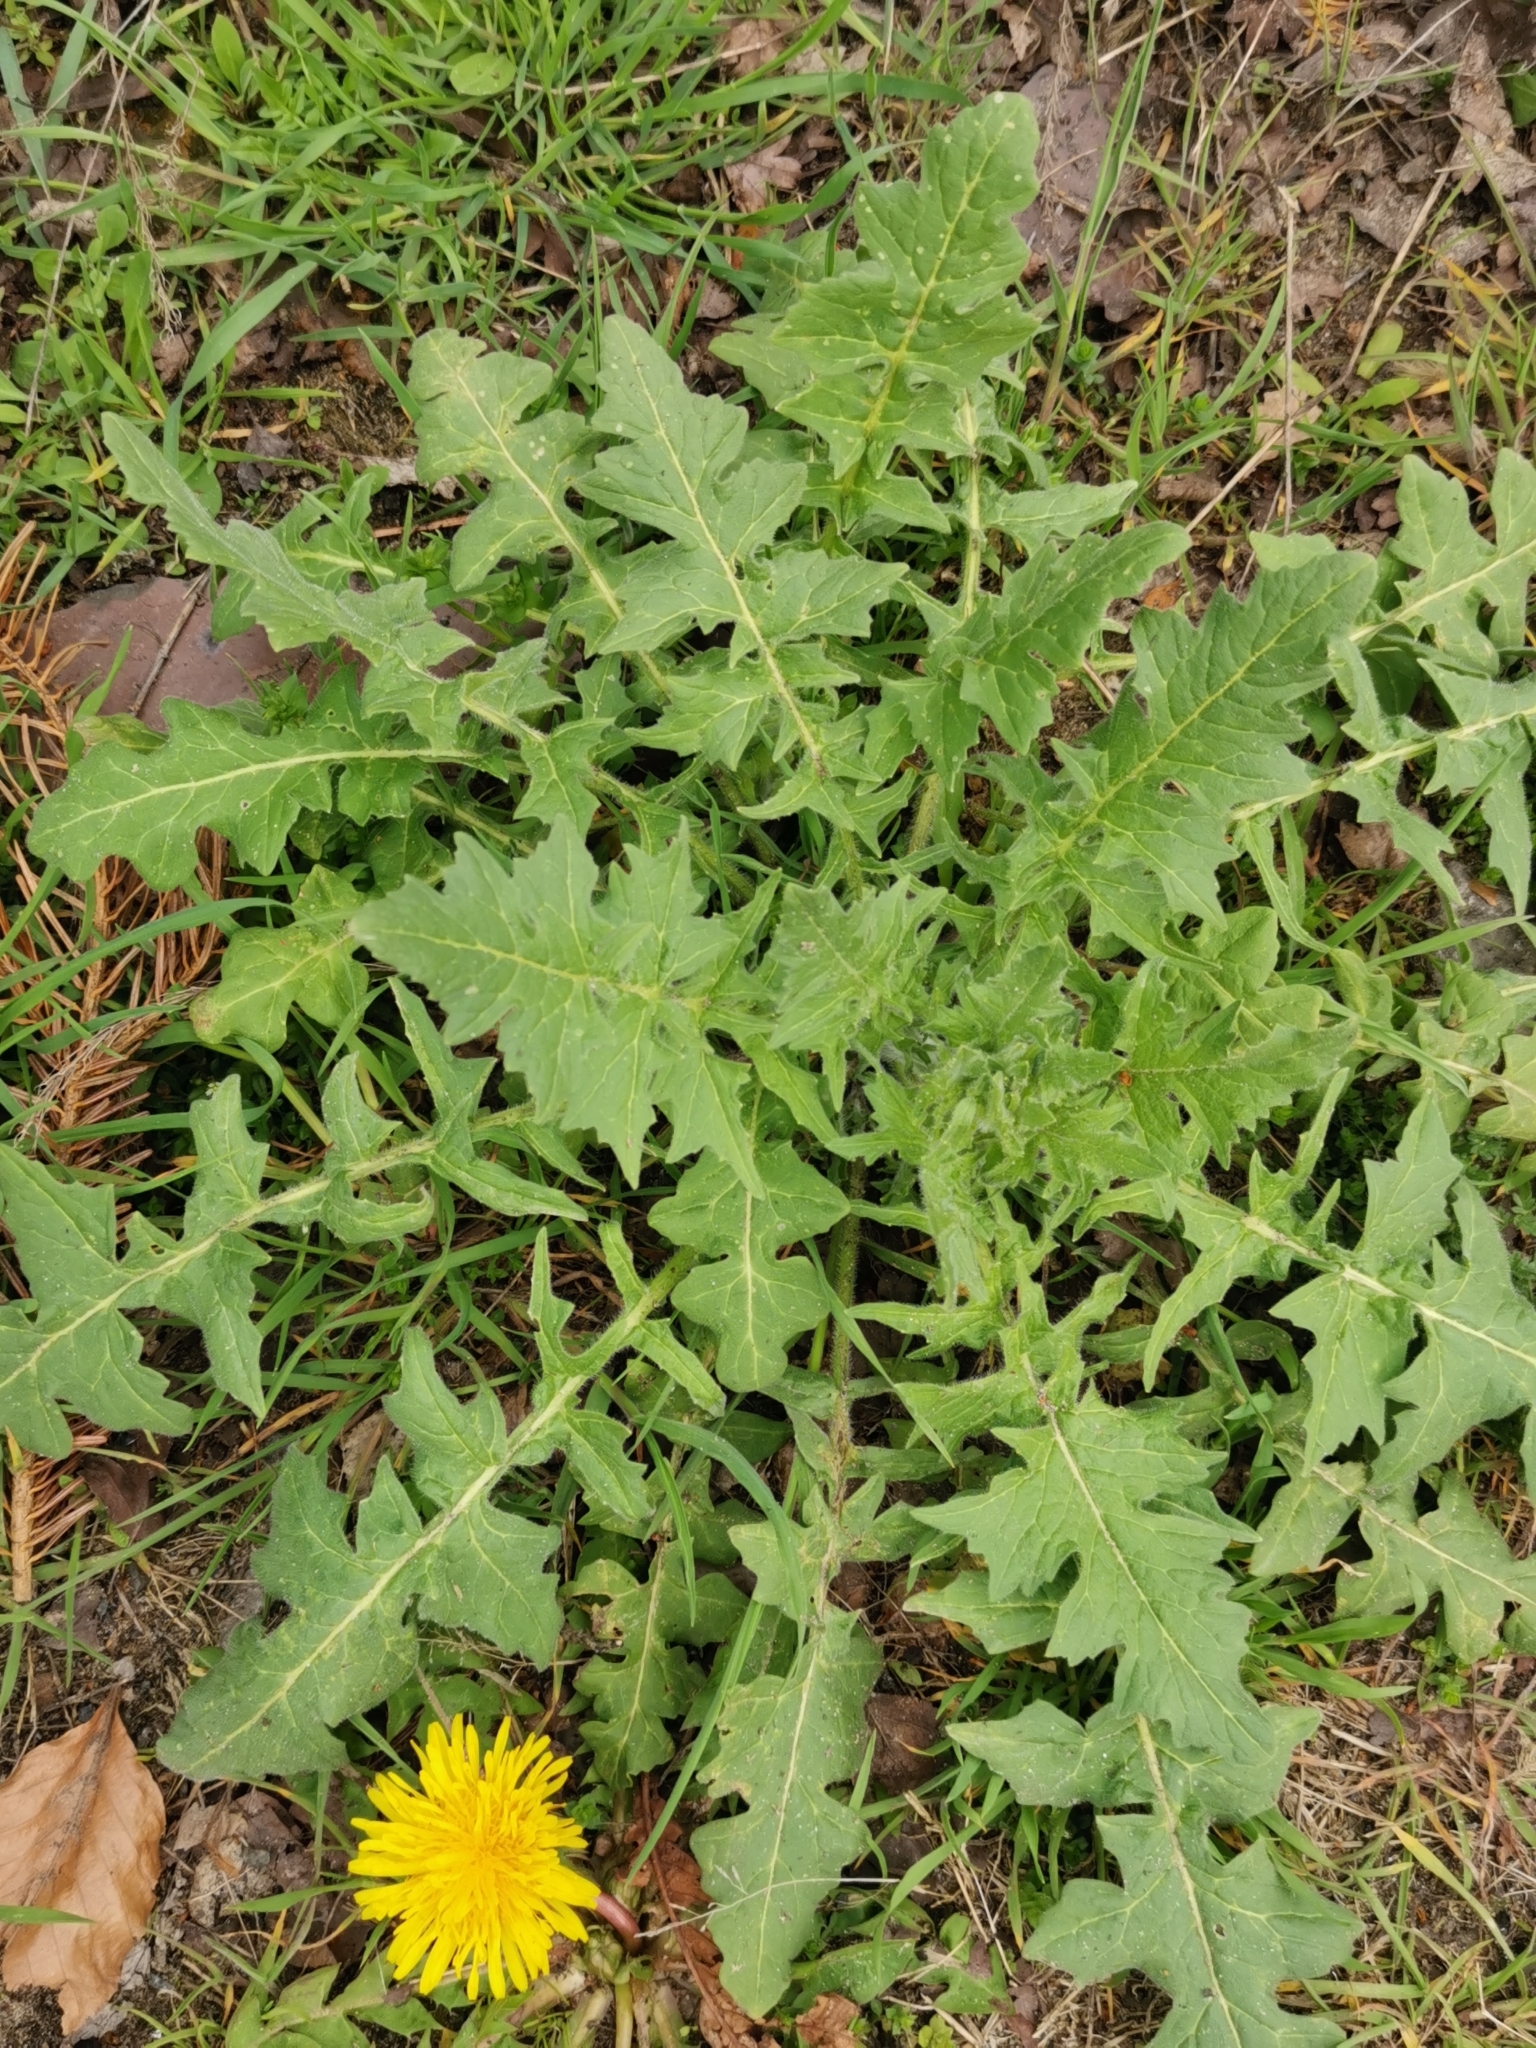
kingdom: Plantae
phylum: Tracheophyta
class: Magnoliopsida
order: Brassicales
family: Brassicaceae
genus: Sisymbrium
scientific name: Sisymbrium loeselii
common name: False london-rocket
